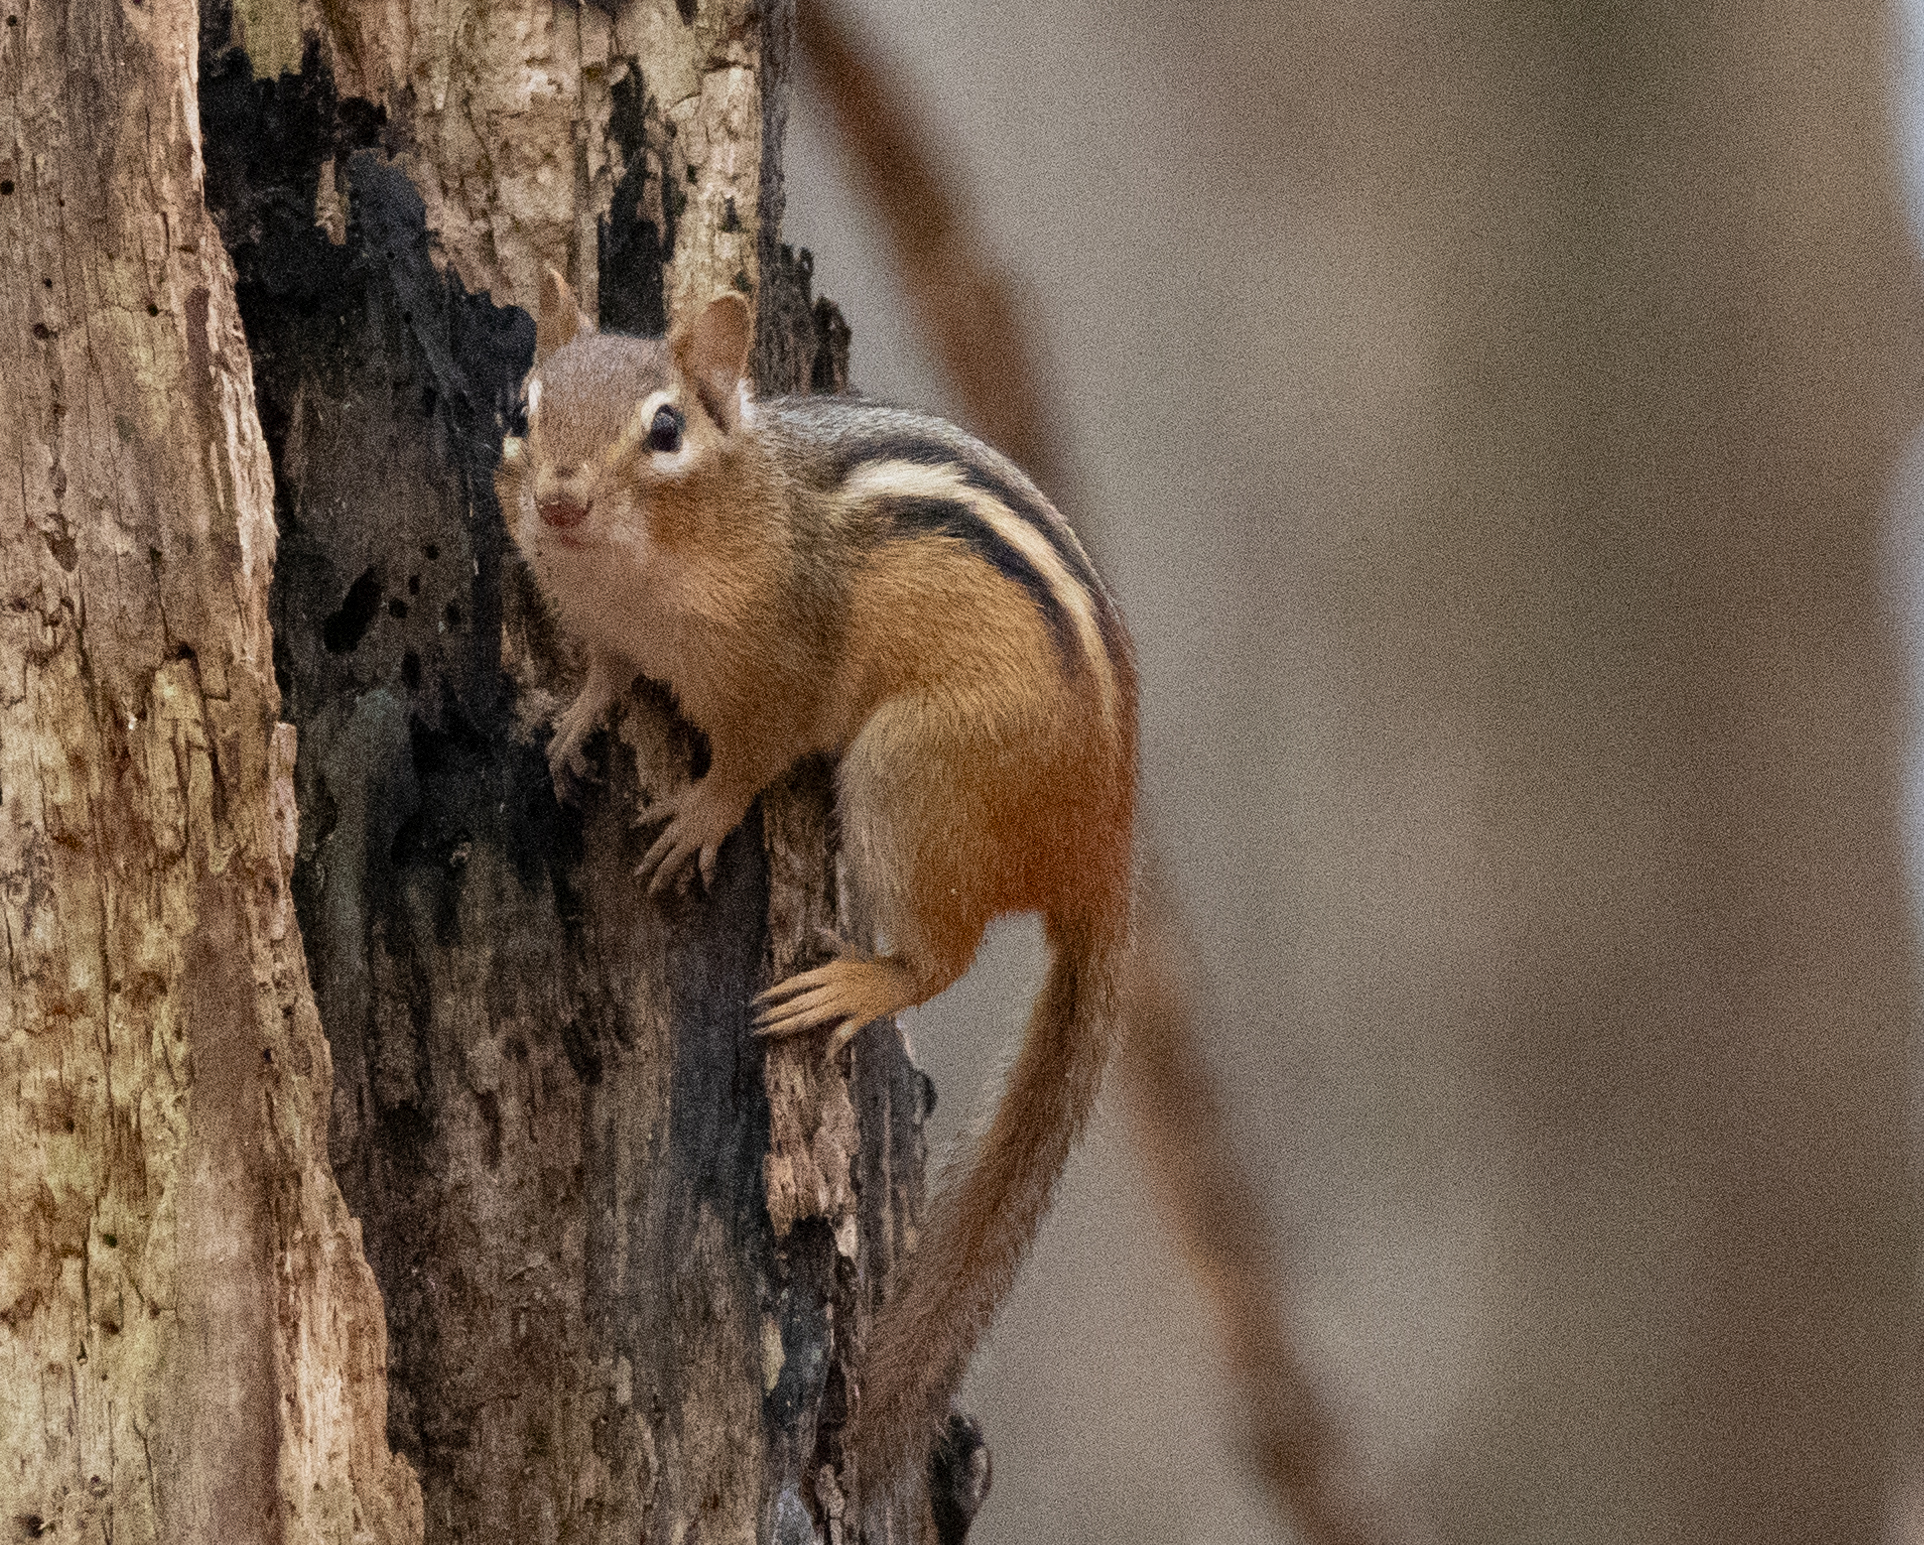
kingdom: Animalia
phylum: Chordata
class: Mammalia
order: Rodentia
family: Sciuridae
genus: Tamias
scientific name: Tamias striatus
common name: Eastern chipmunk
